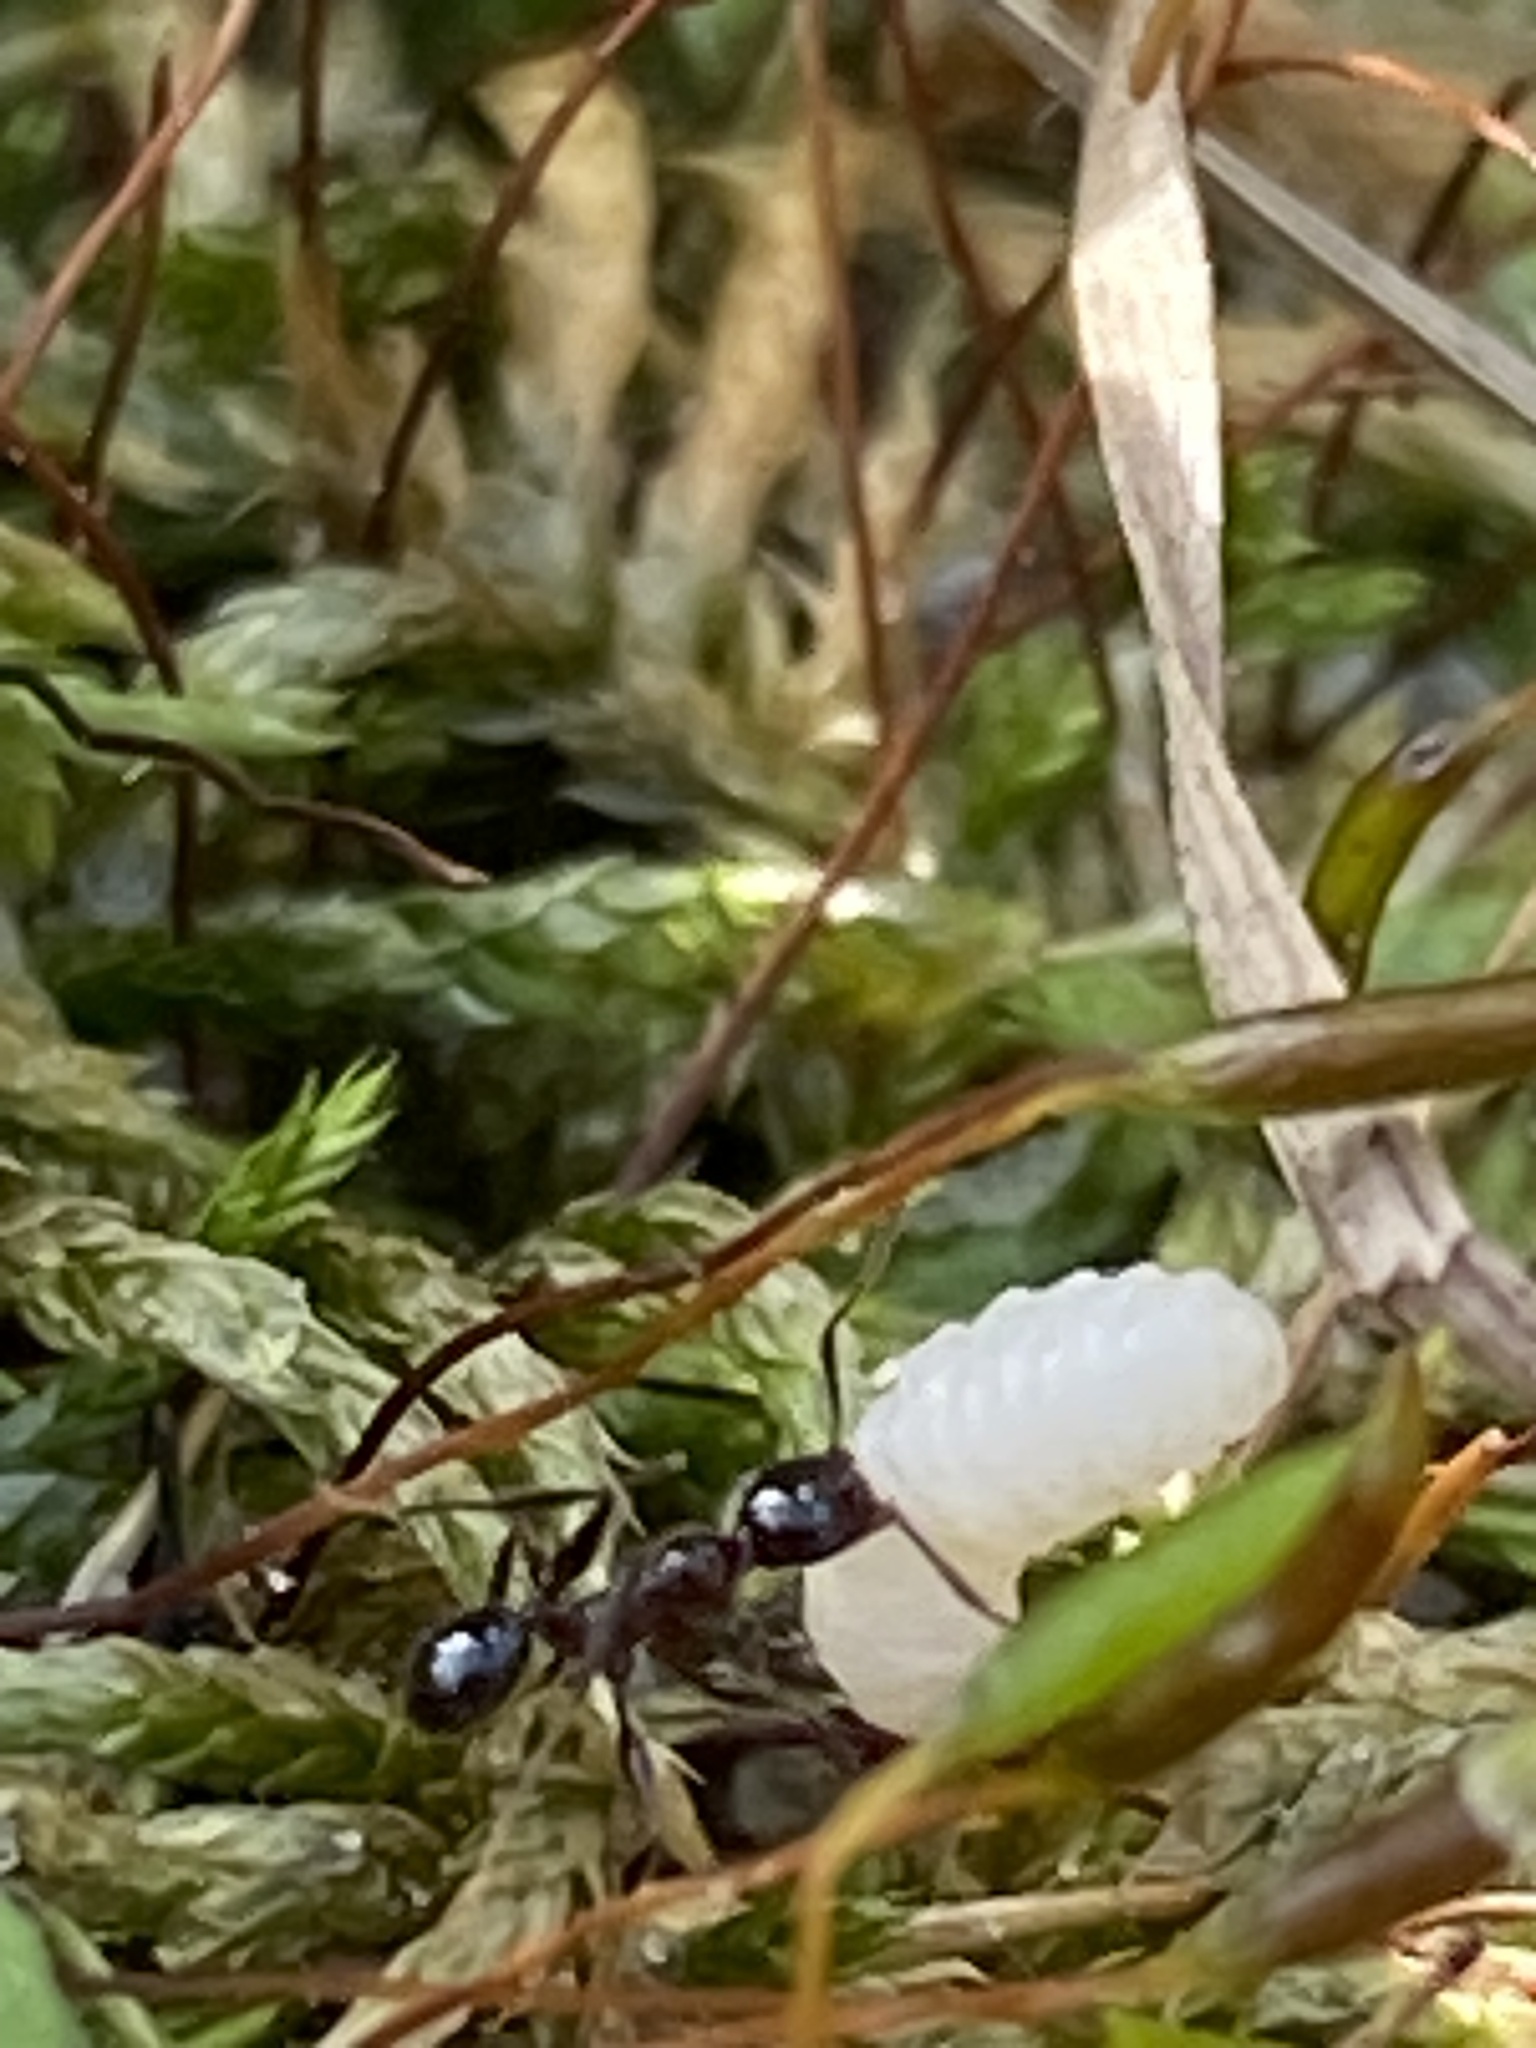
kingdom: Animalia
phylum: Arthropoda
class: Insecta
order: Hymenoptera
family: Formicidae
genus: Pheidole
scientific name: Pheidole obscurithorax
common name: Obscure big-headed ant
